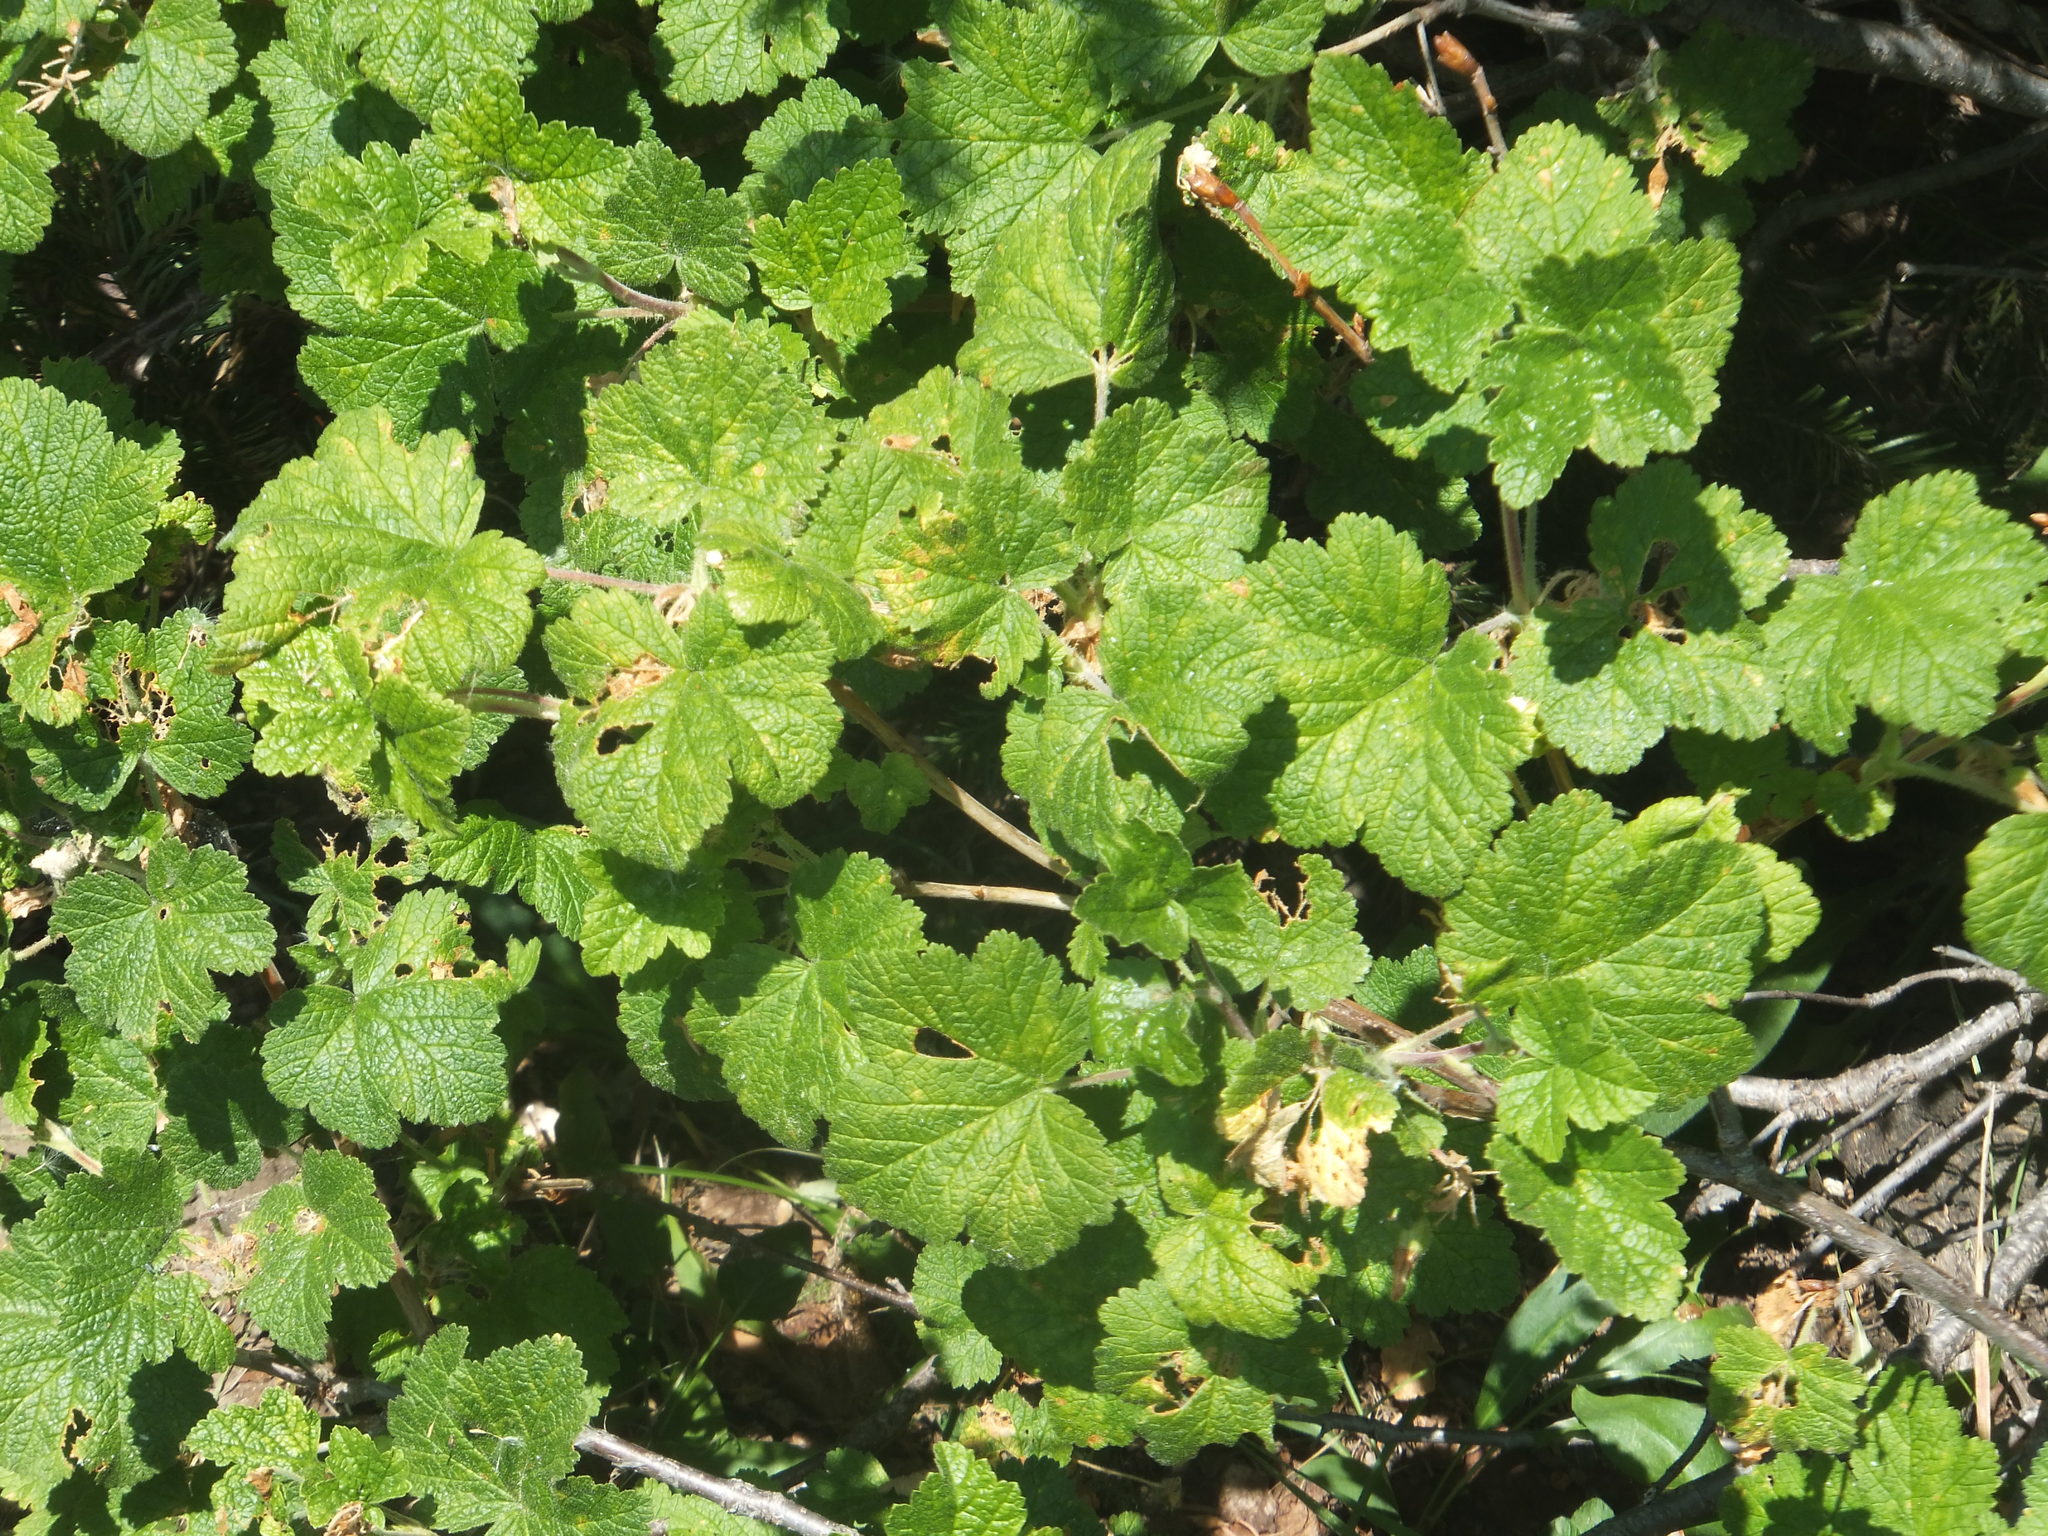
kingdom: Plantae
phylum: Tracheophyta
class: Magnoliopsida
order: Saxifragales
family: Grossulariaceae
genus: Ribes
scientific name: Ribes viscosissimum
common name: Sticky currant
